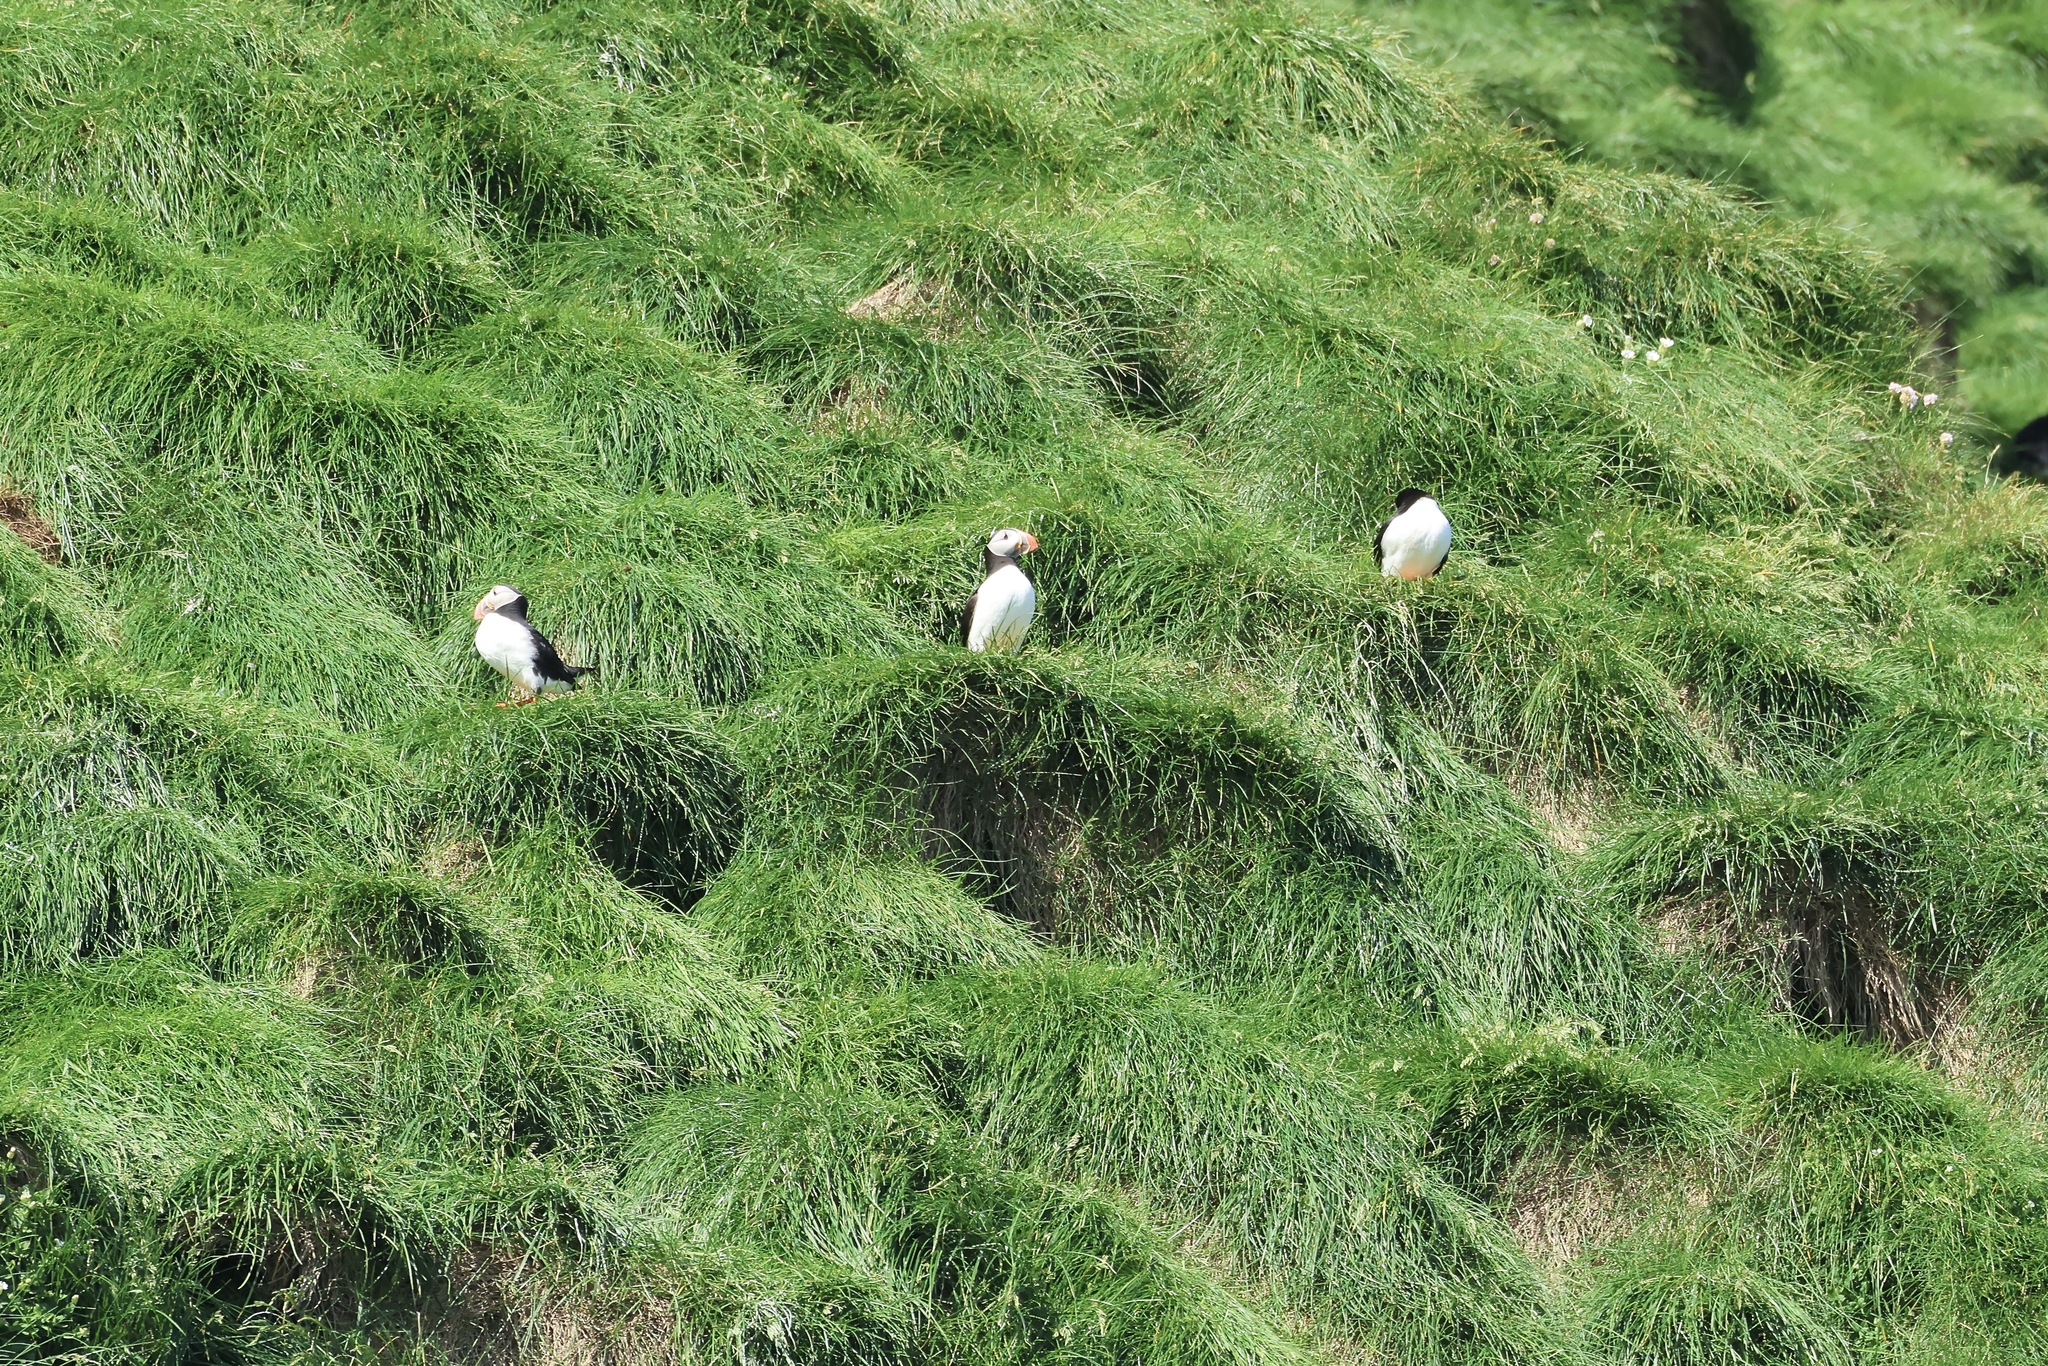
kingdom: Animalia
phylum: Chordata
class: Aves
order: Charadriiformes
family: Alcidae
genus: Fratercula
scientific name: Fratercula arctica
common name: Atlantic puffin
